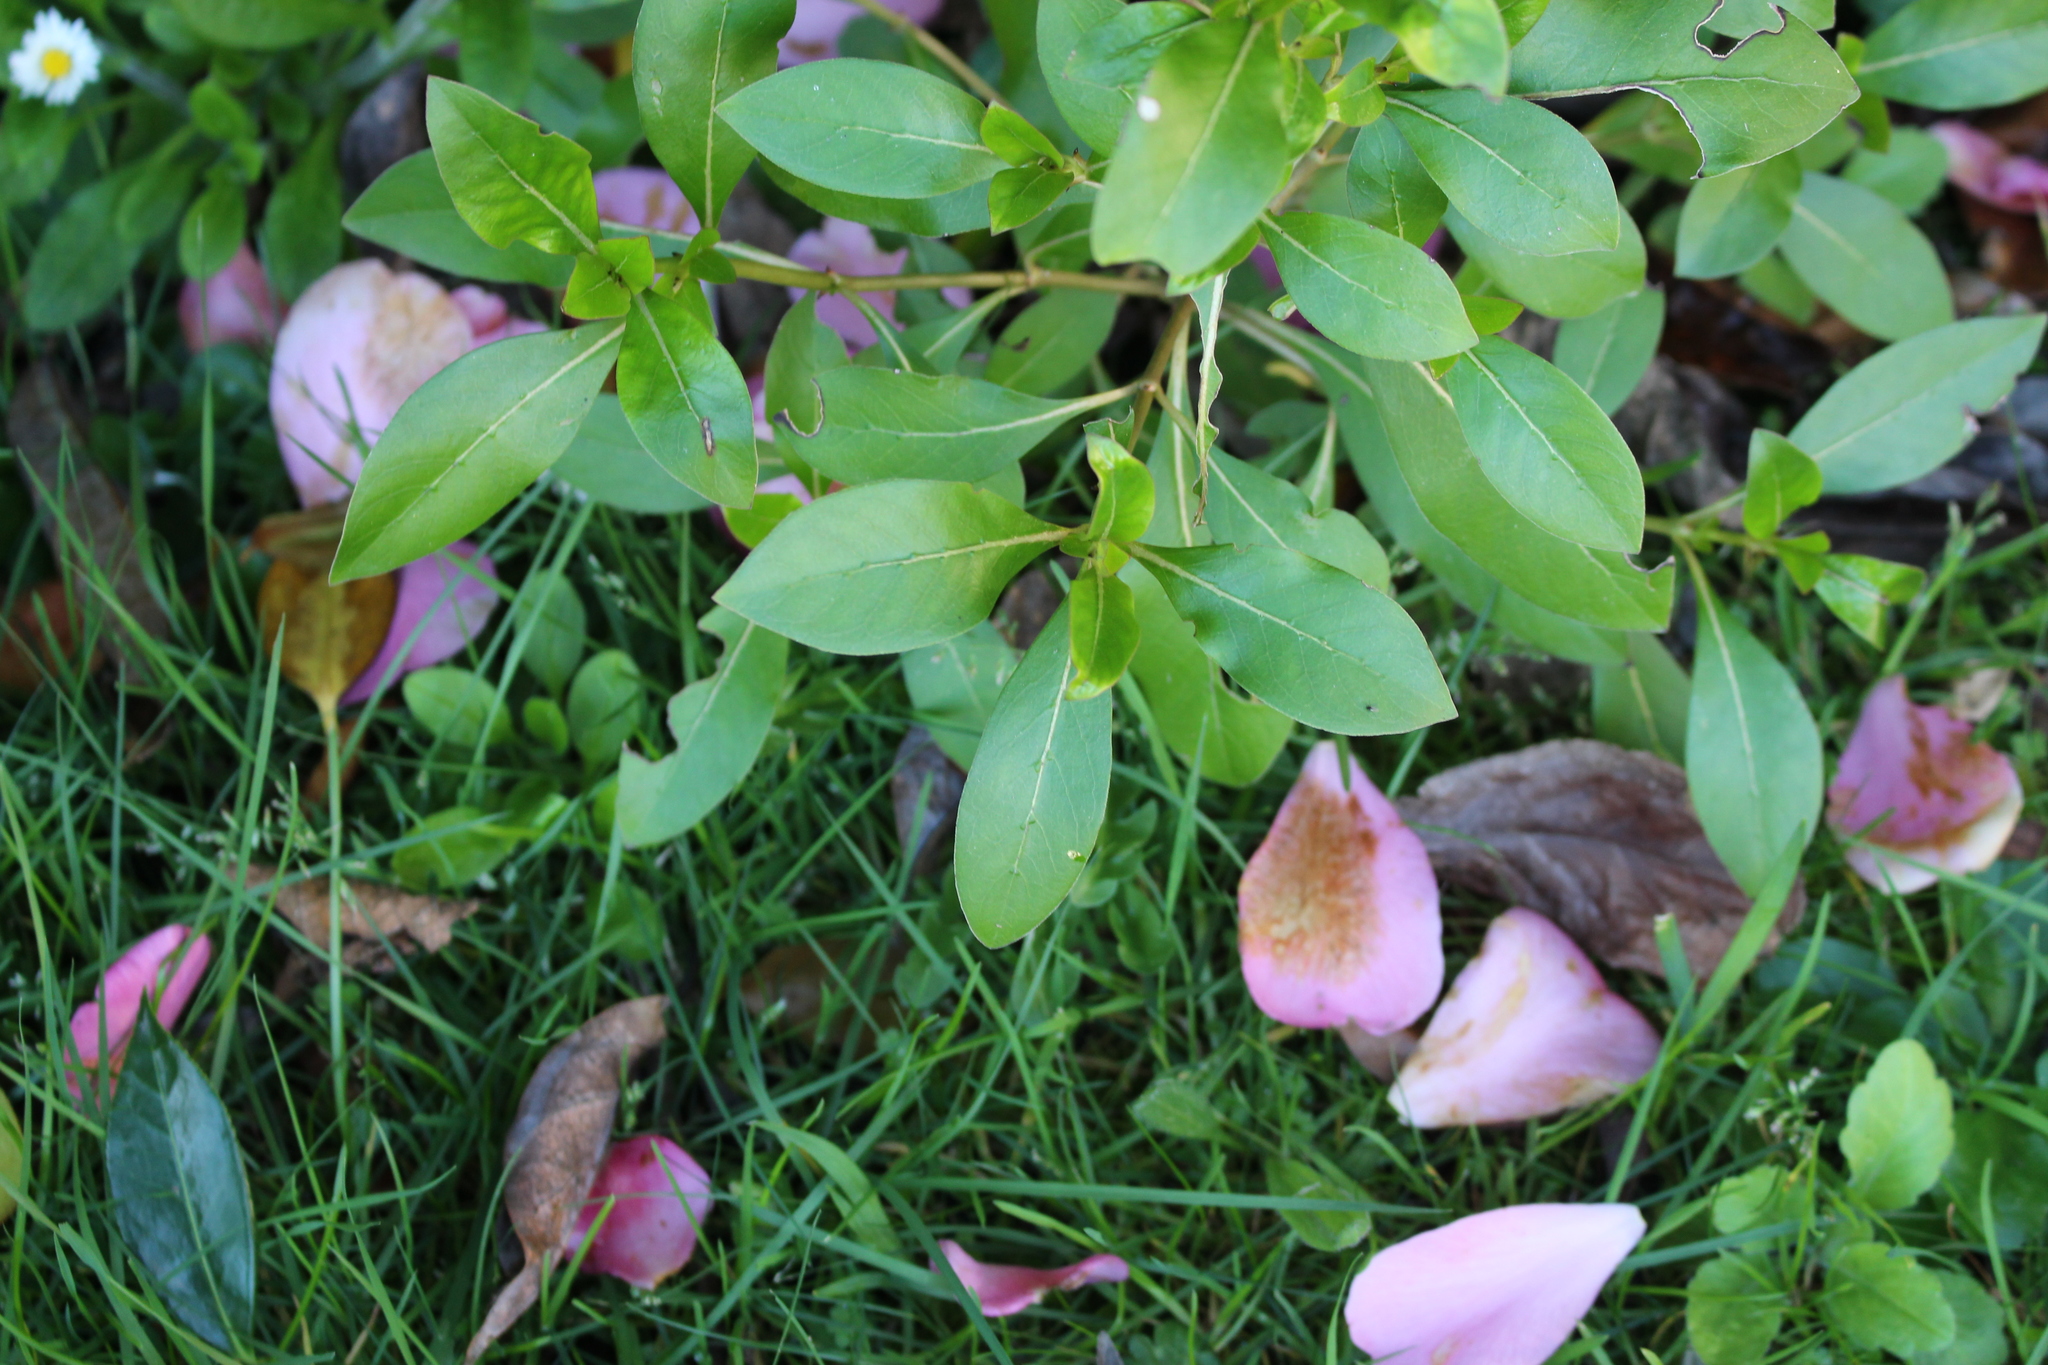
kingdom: Plantae
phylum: Tracheophyta
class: Magnoliopsida
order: Gentianales
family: Rubiaceae
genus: Coprosma
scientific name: Coprosma robusta
